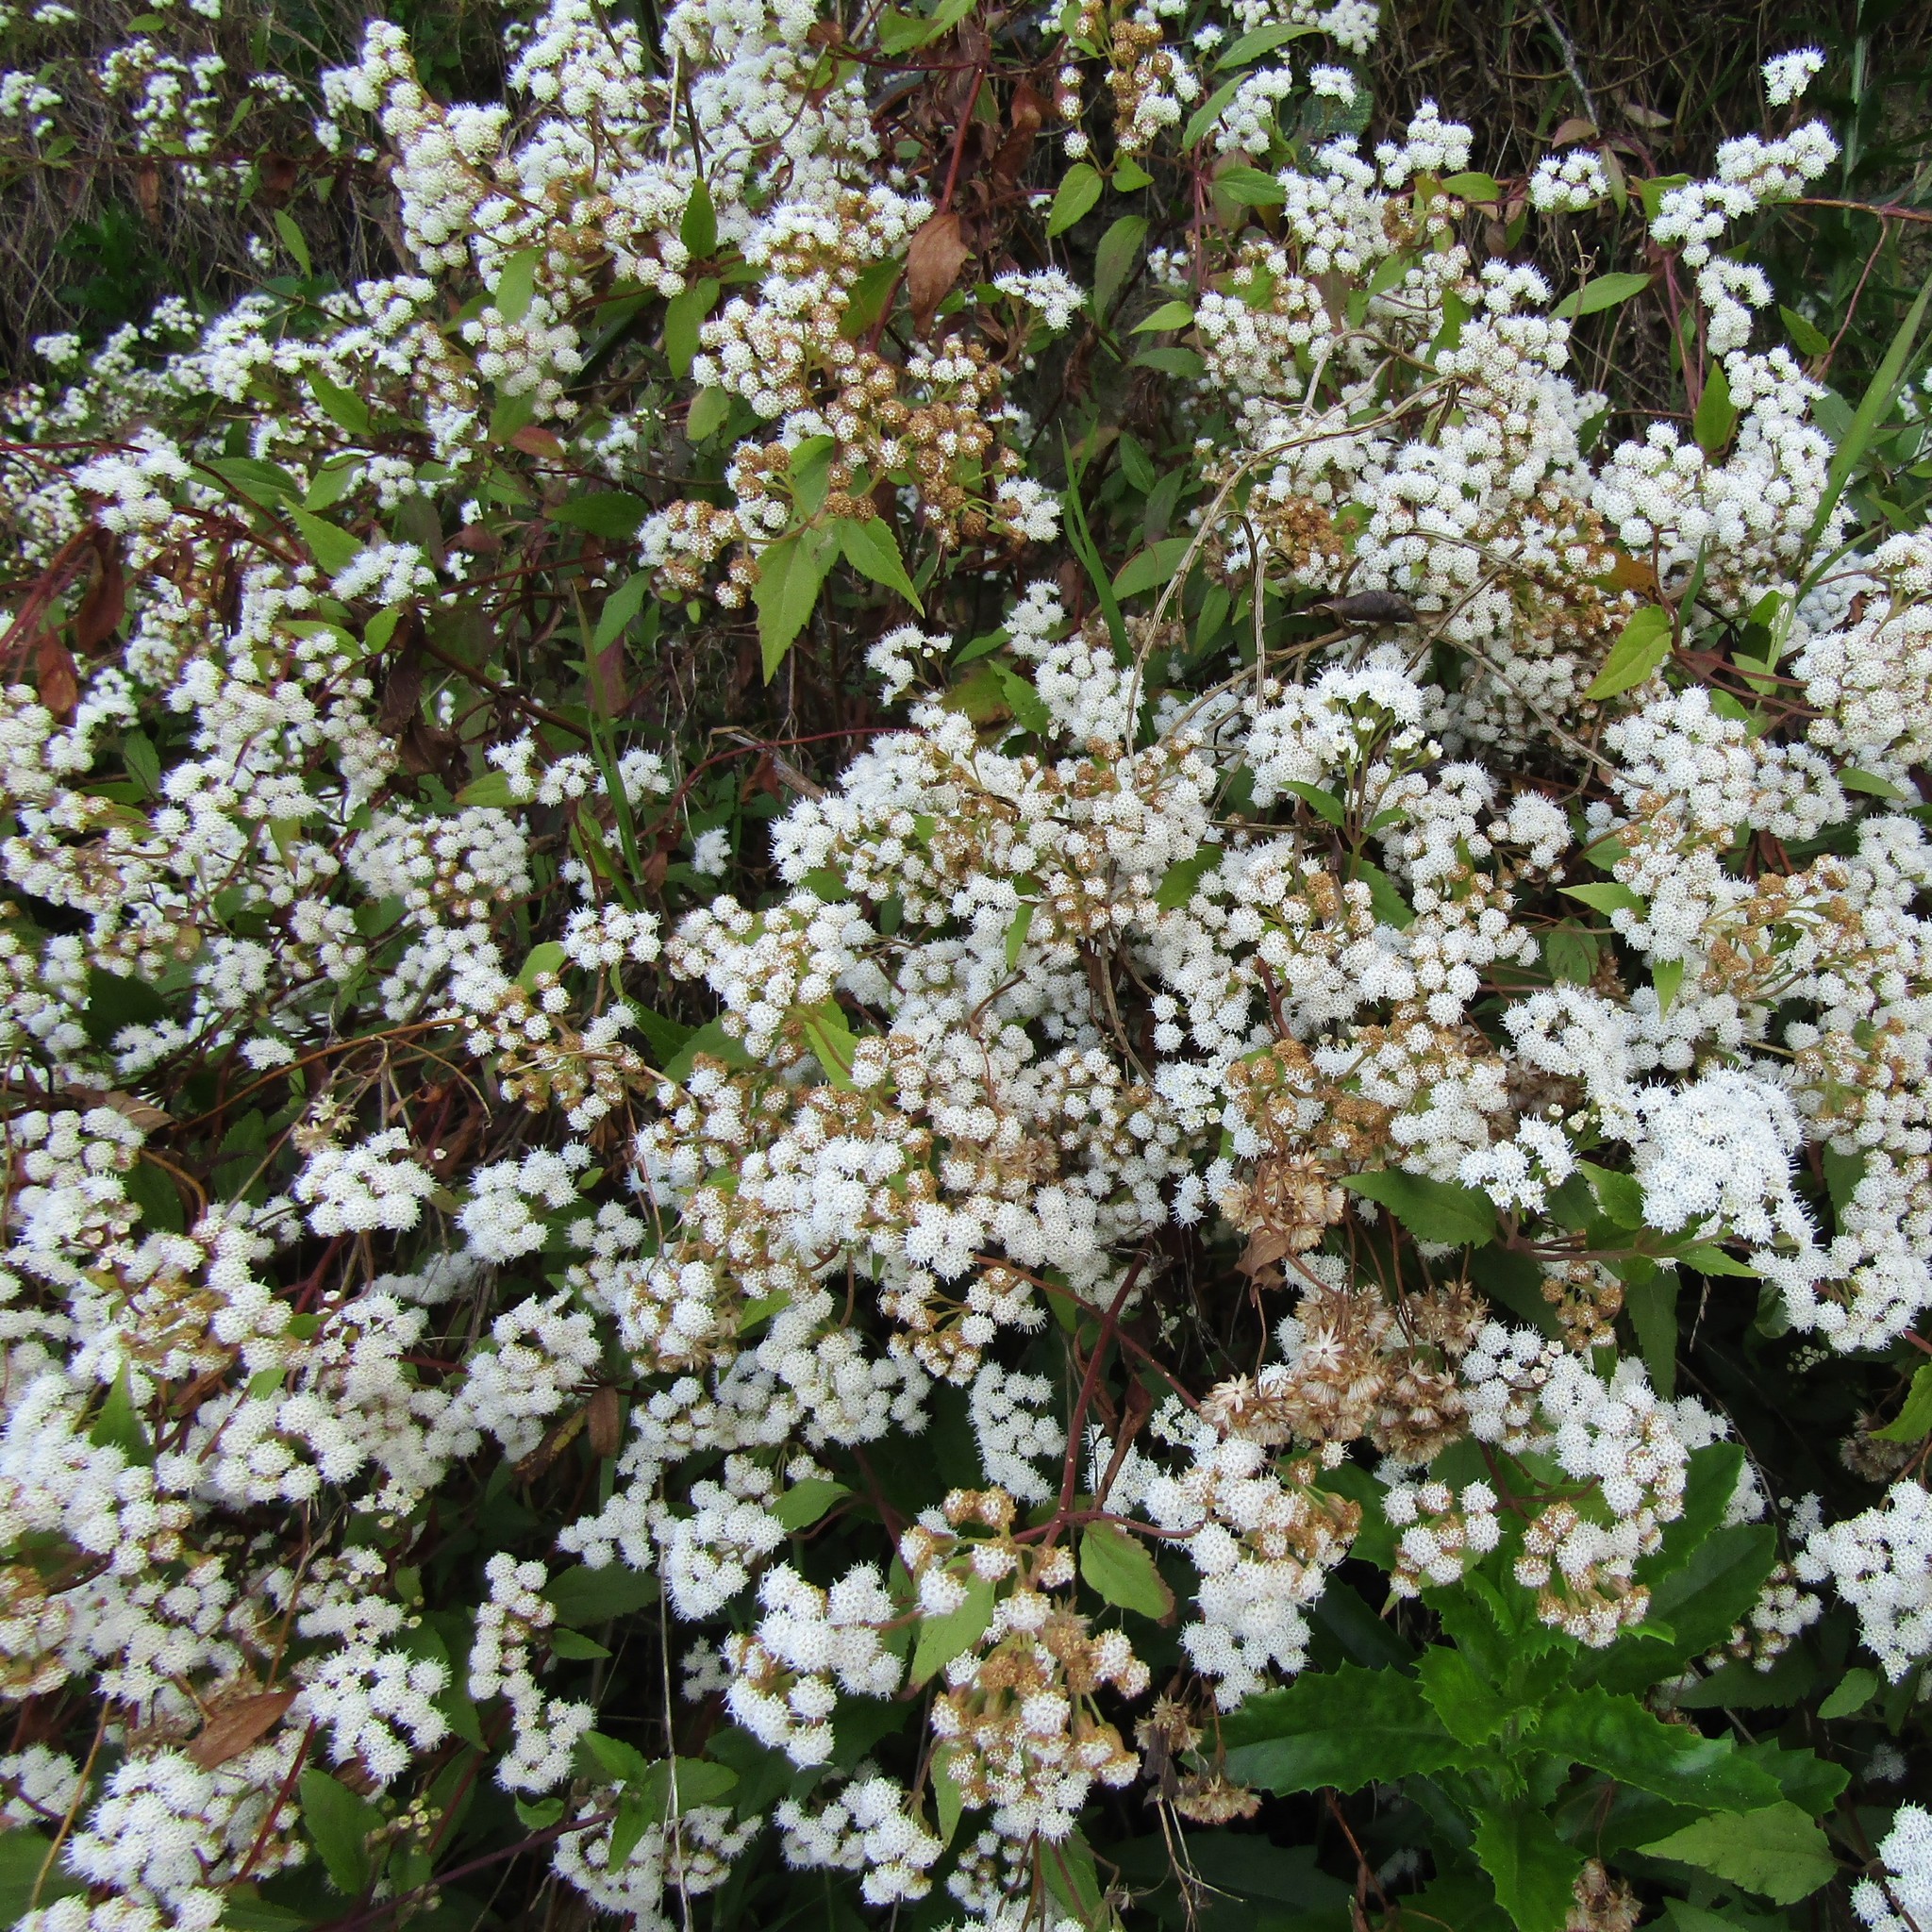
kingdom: Plantae
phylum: Tracheophyta
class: Magnoliopsida
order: Asterales
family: Asteraceae
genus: Ageratina
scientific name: Ageratina riparia
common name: Creeping croftonweed
